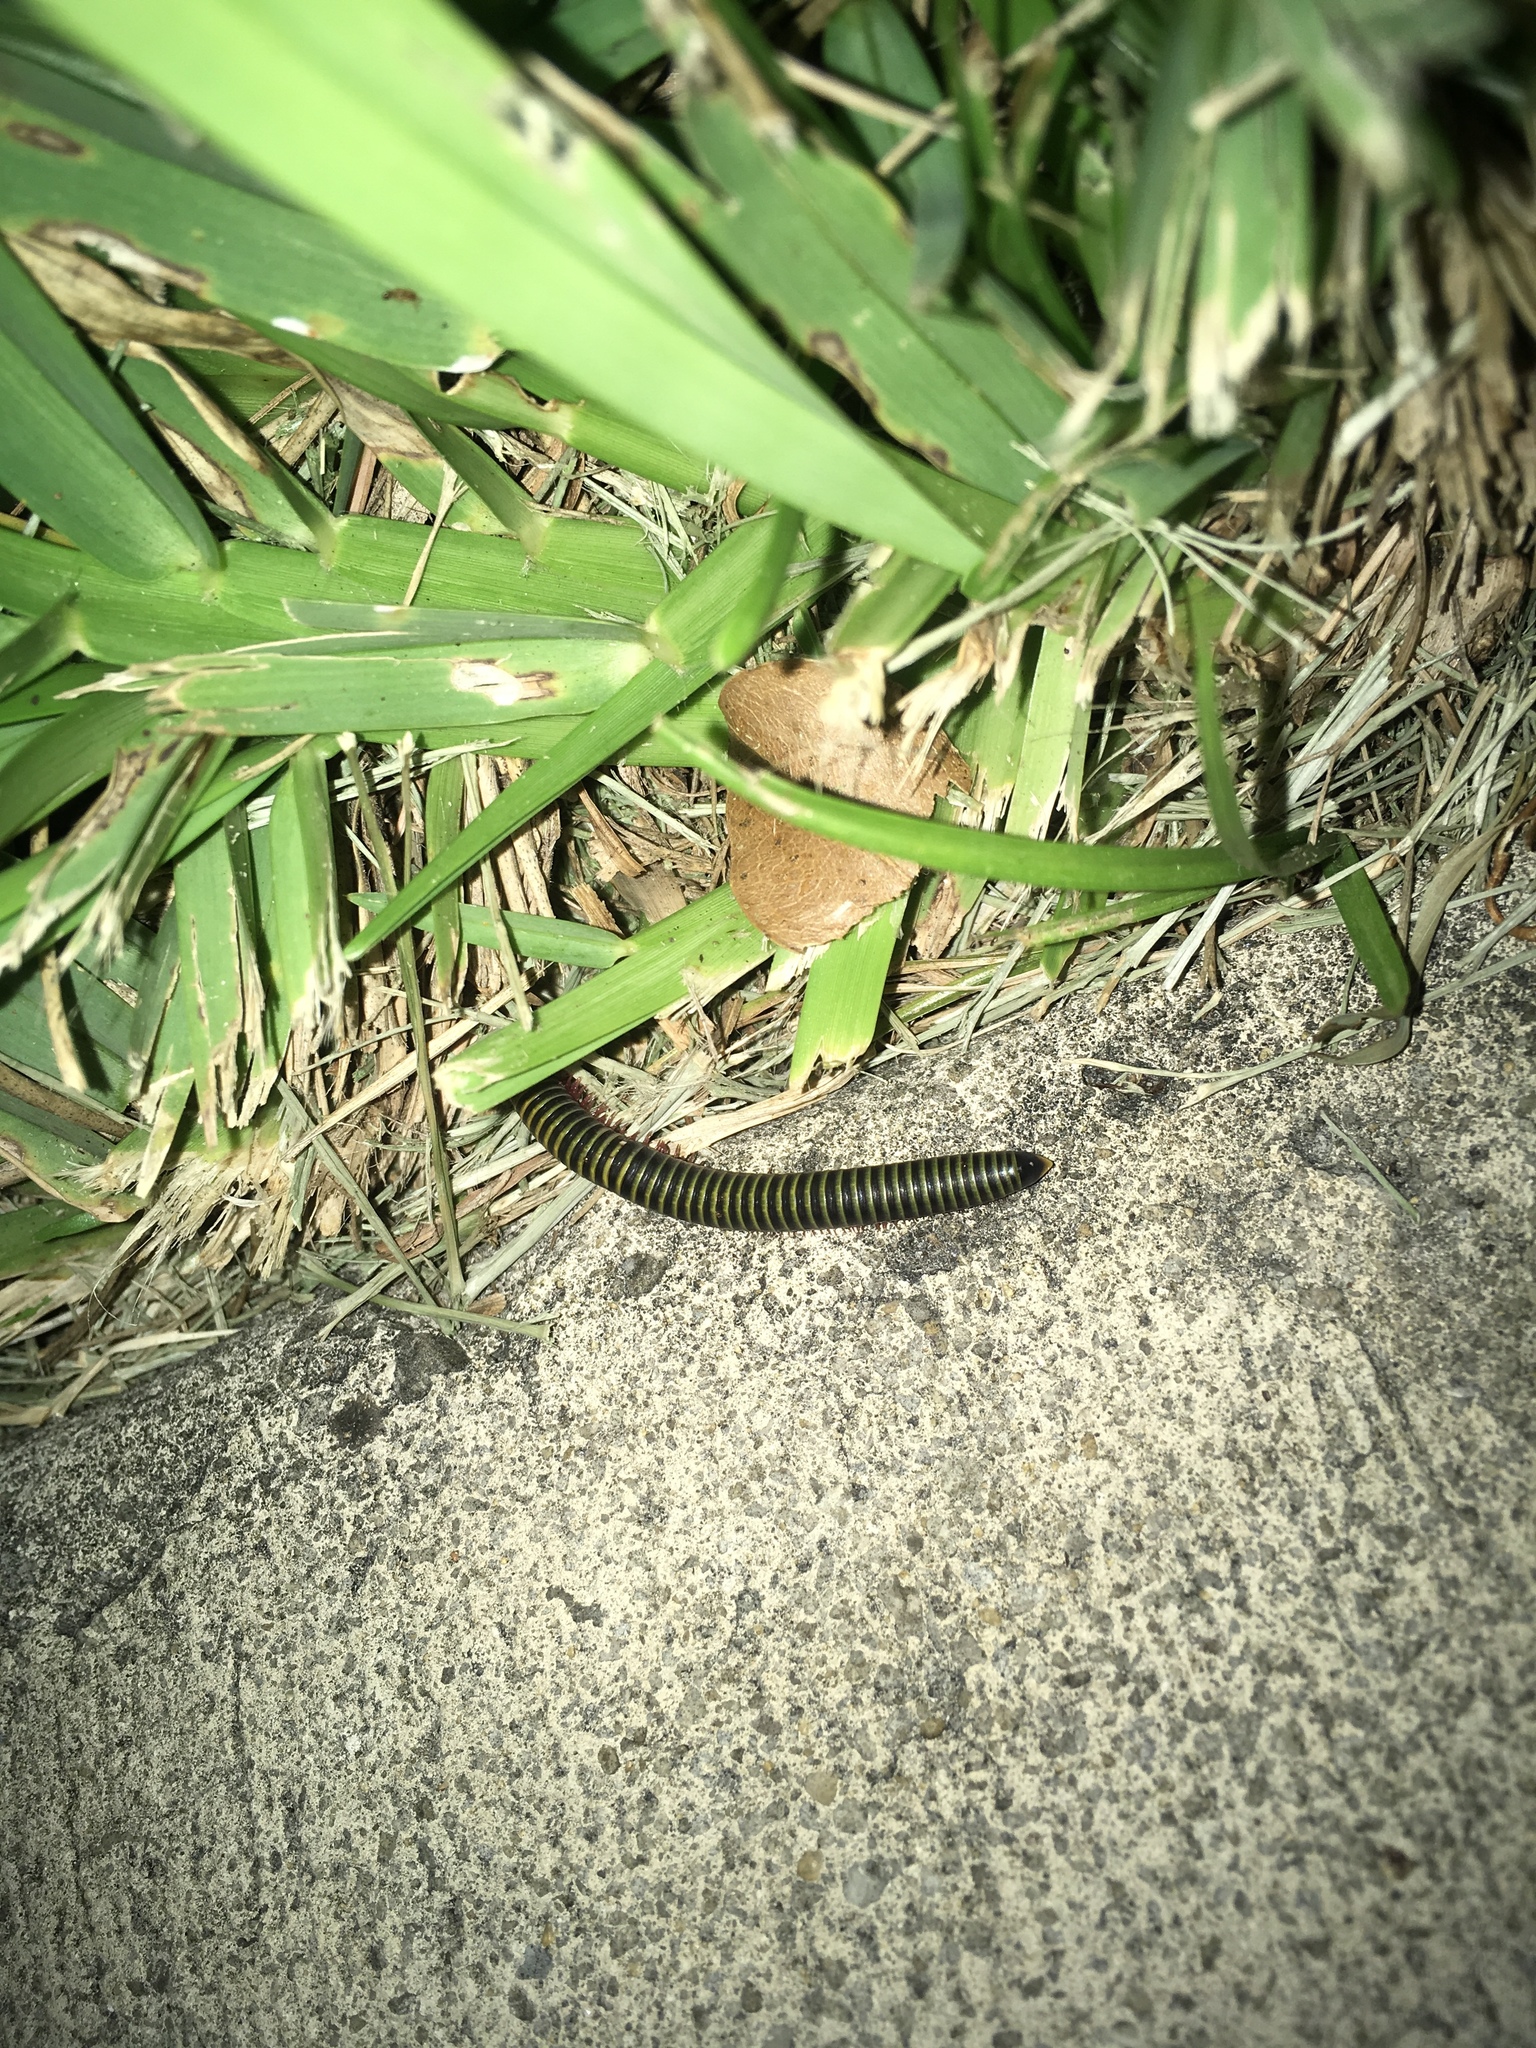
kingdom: Animalia
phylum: Arthropoda
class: Diplopoda
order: Spirobolida
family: Rhinocricidae
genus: Anadenobolus
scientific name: Anadenobolus monilicornis
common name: Caribbean millipede
